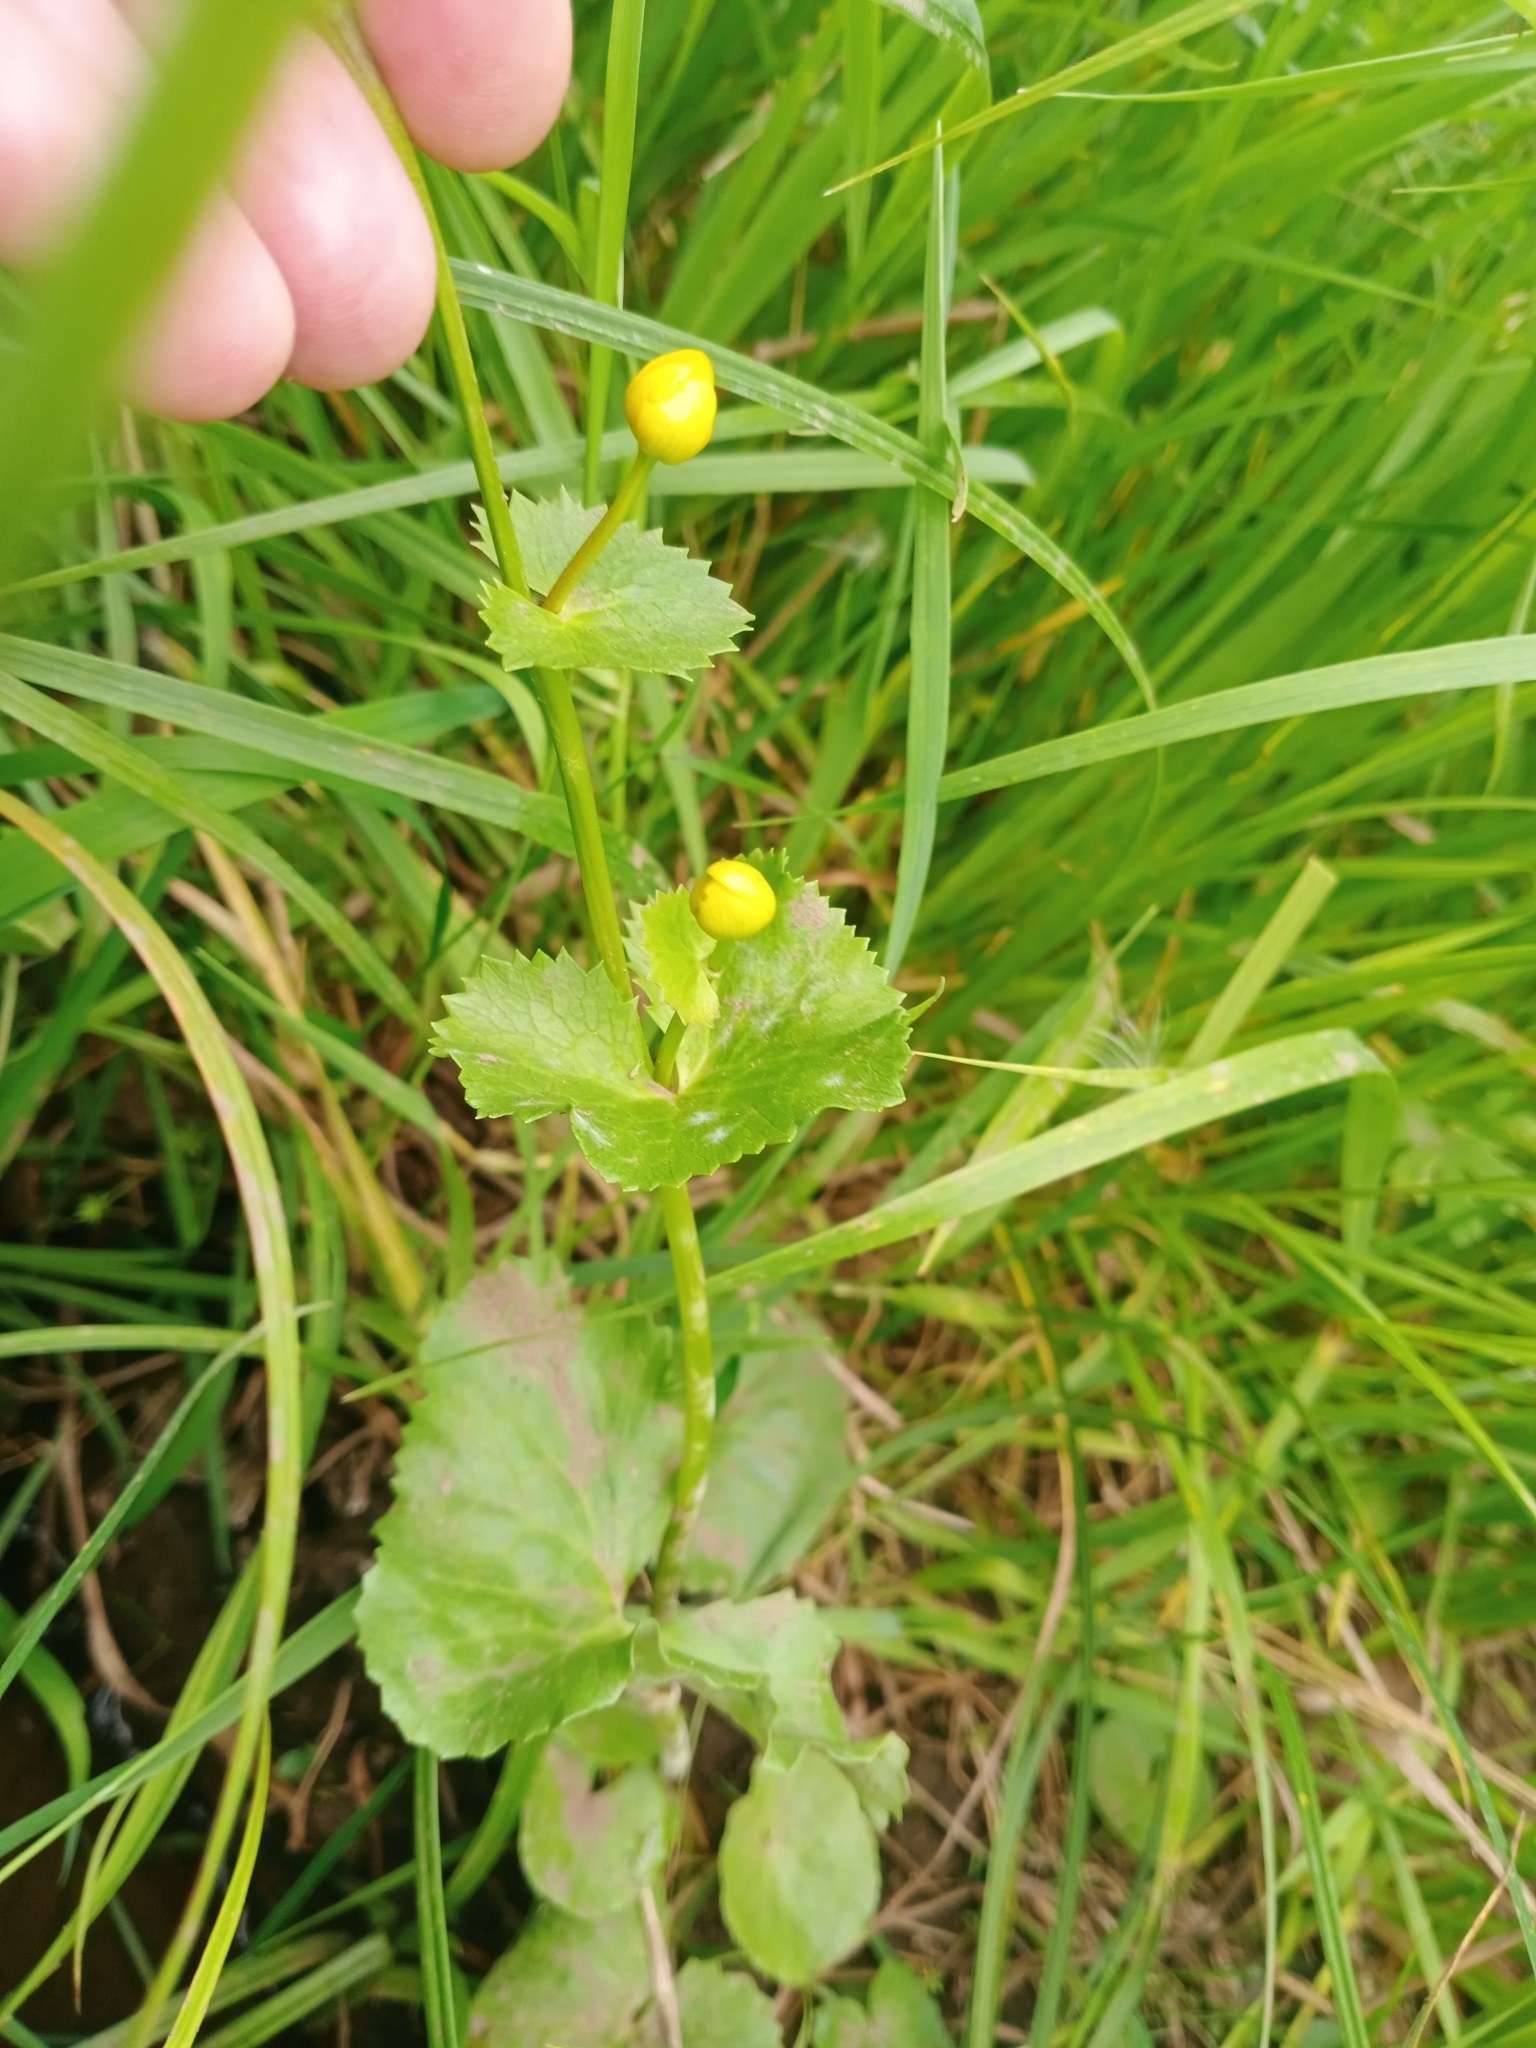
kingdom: Plantae
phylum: Tracheophyta
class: Magnoliopsida
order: Ranunculales
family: Ranunculaceae
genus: Caltha
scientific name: Caltha palustris
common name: Marsh marigold
